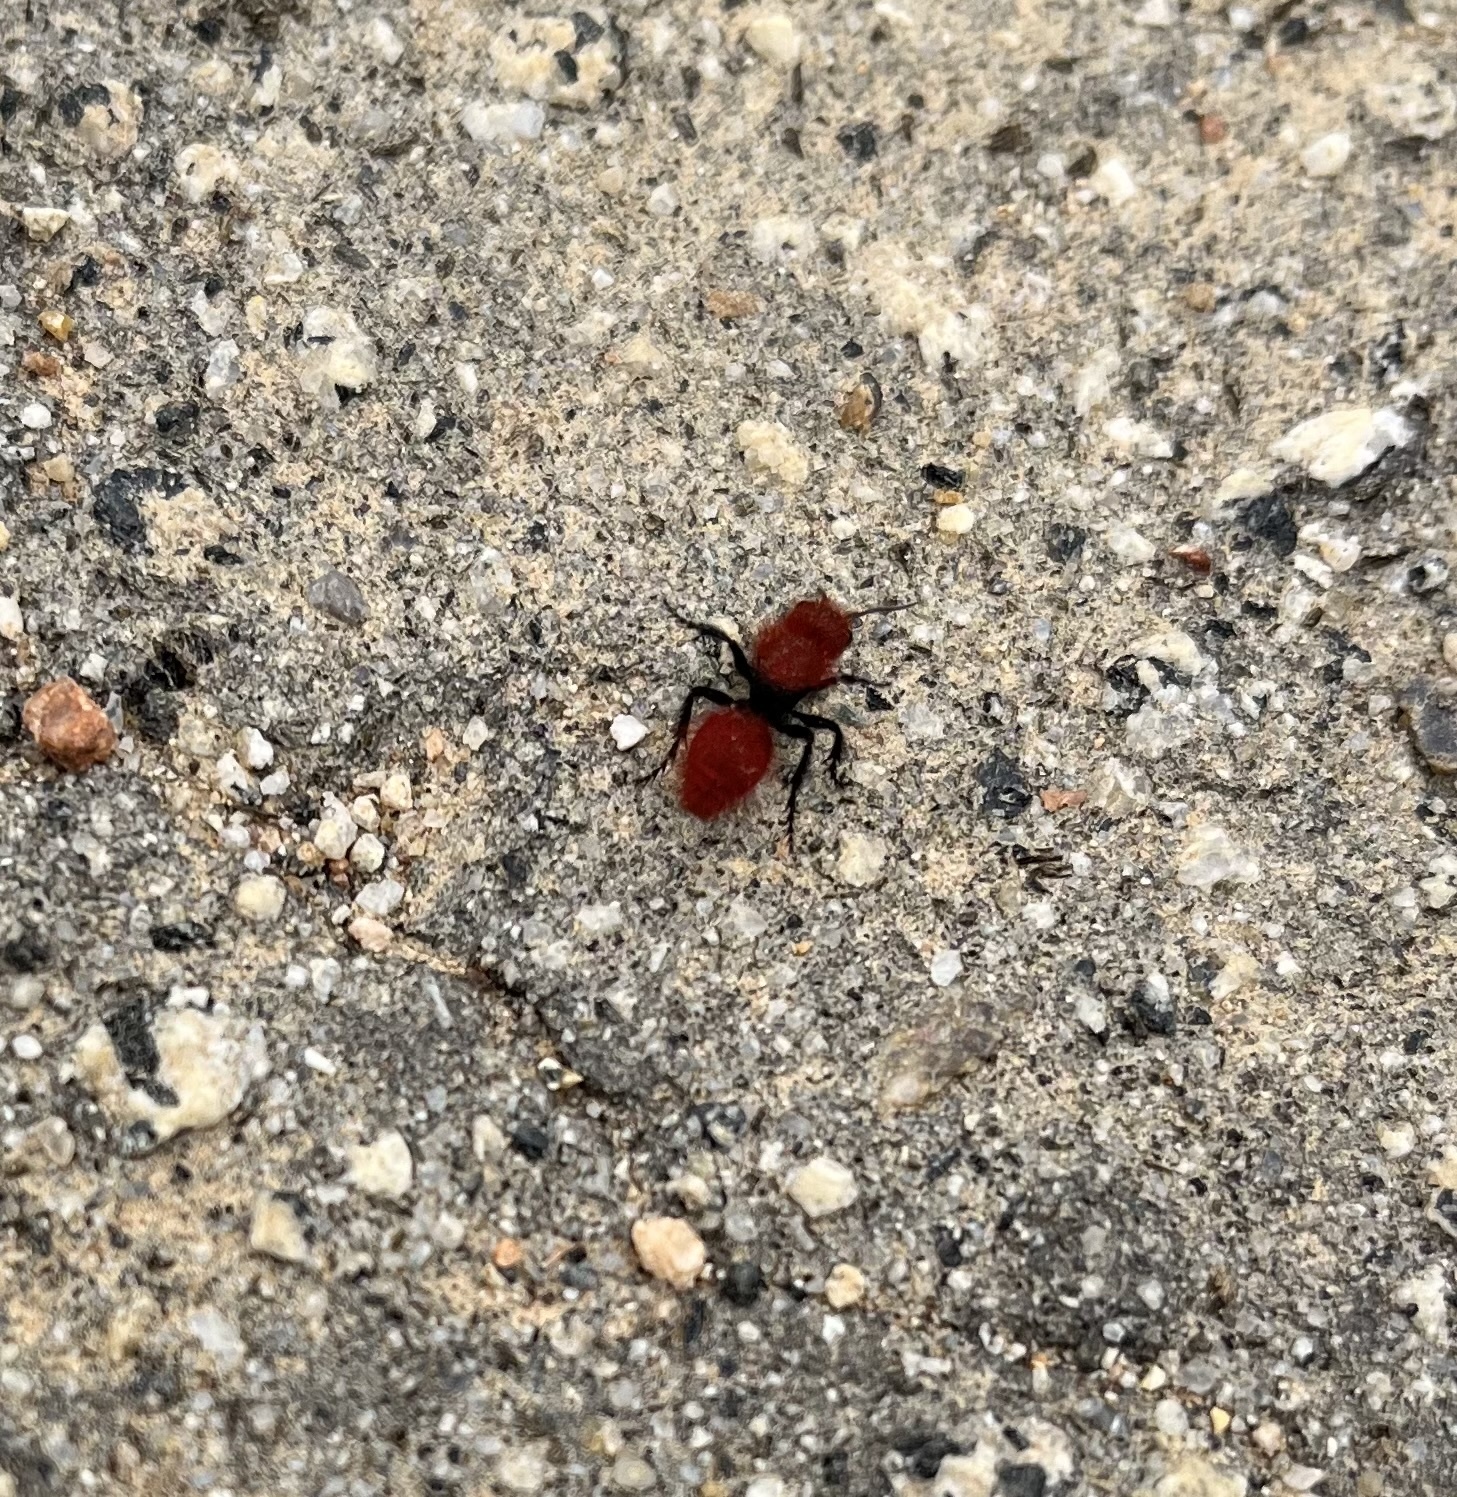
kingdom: Animalia
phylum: Arthropoda
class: Insecta
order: Hymenoptera
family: Mutillidae
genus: Dasymutilla
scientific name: Dasymutilla
